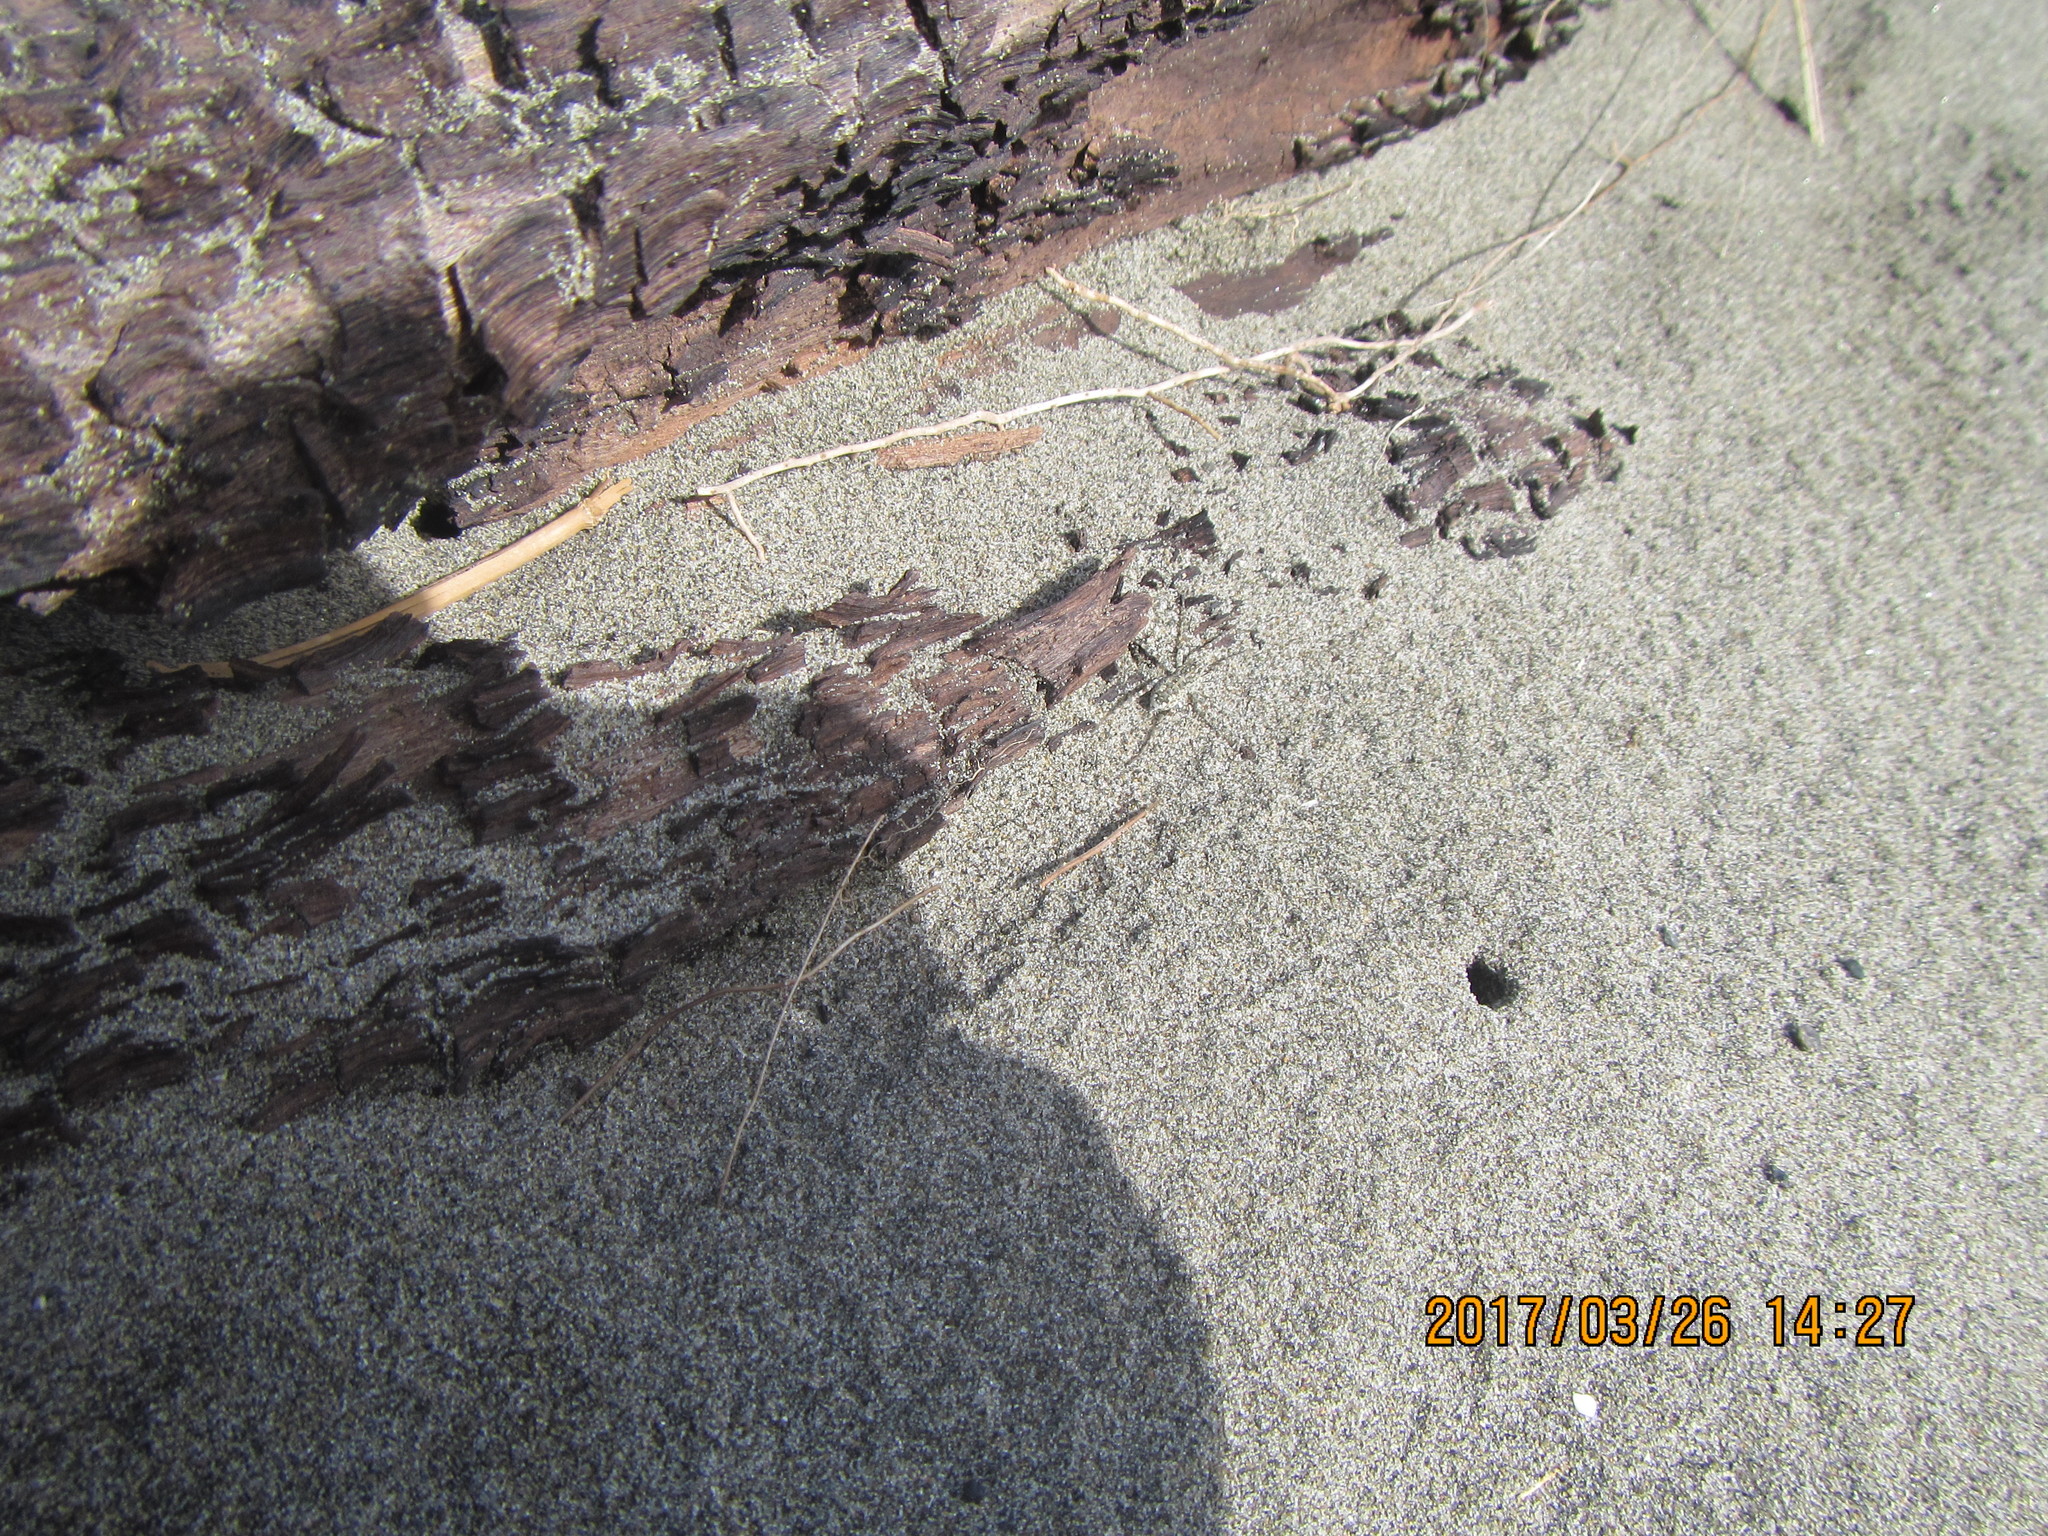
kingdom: Animalia
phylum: Arthropoda
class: Arachnida
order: Araneae
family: Lycosidae
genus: Anoteropsis
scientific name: Anoteropsis litoralis
